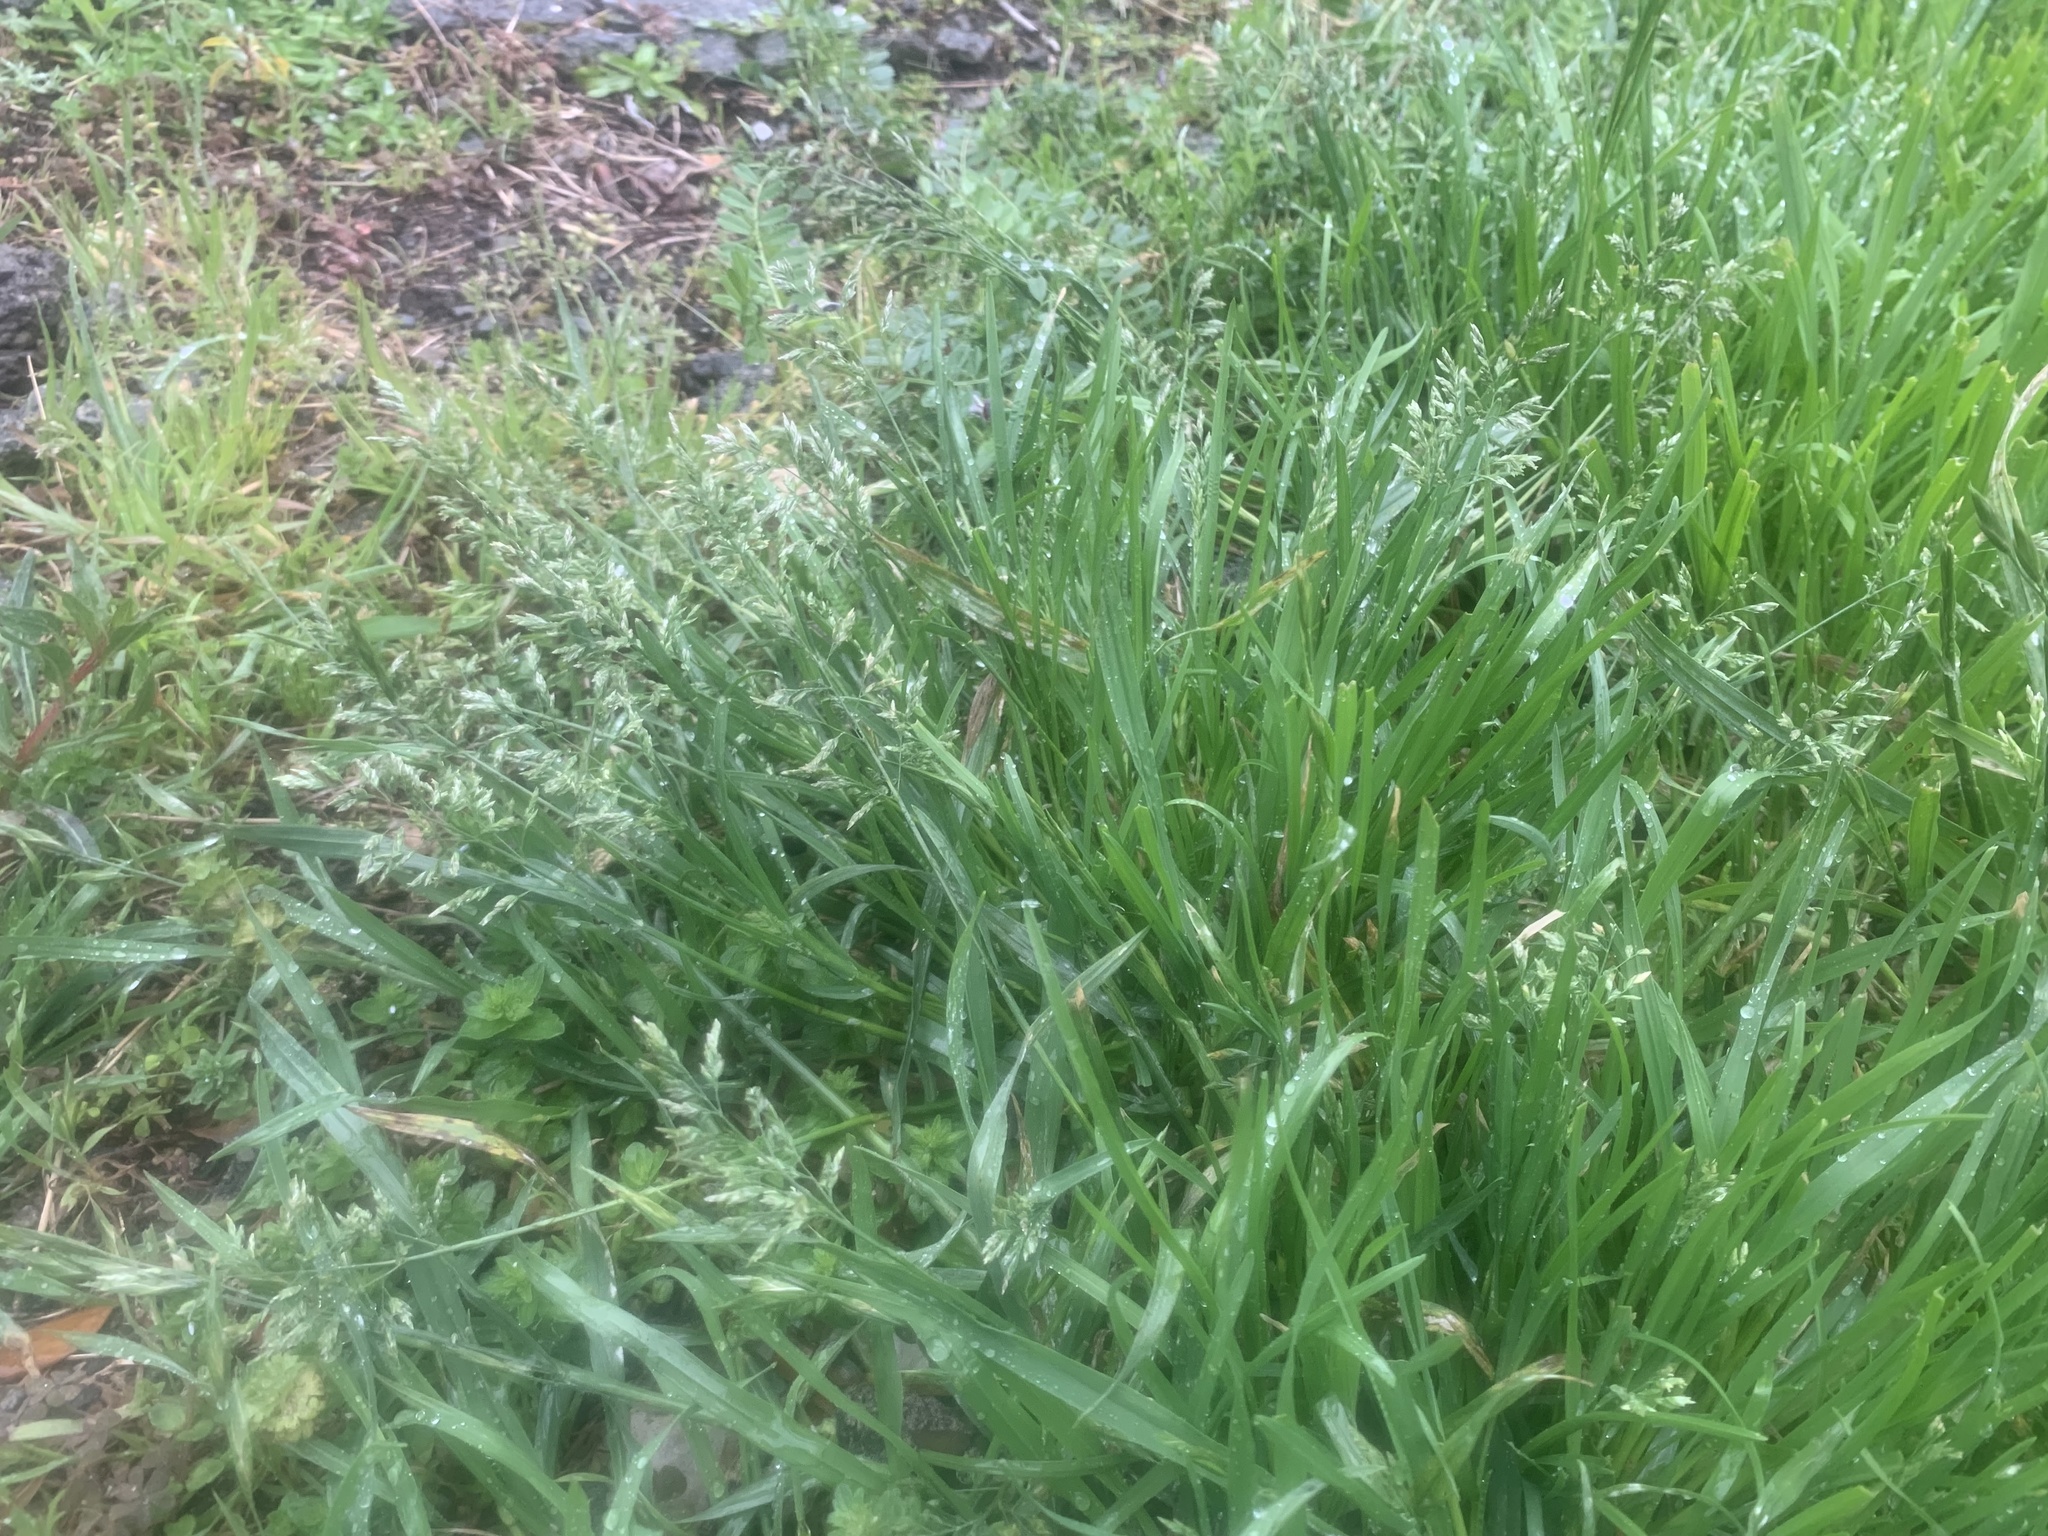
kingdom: Plantae
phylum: Tracheophyta
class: Liliopsida
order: Poales
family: Poaceae
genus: Poa
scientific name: Poa annua
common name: Annual bluegrass
